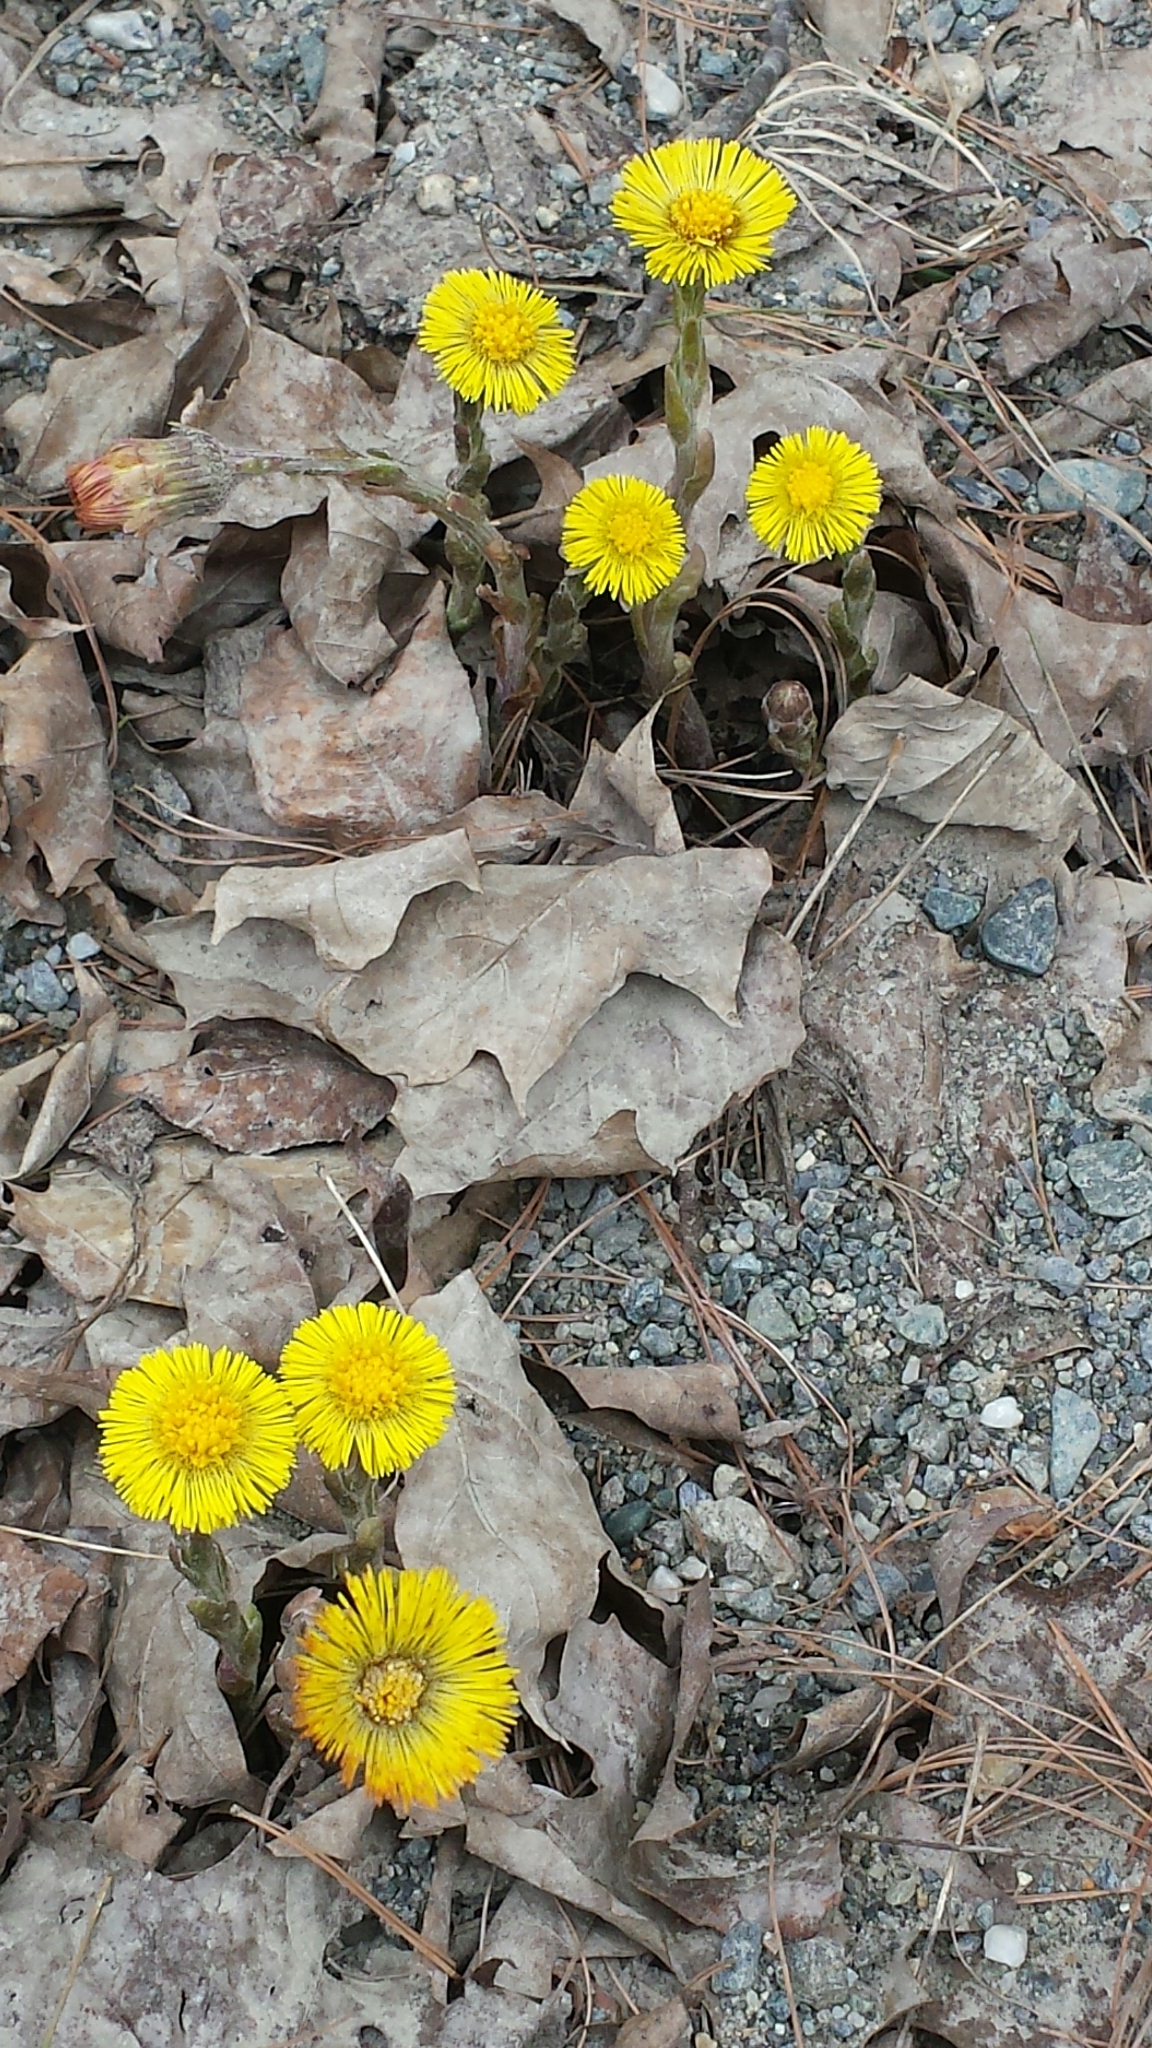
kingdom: Plantae
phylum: Tracheophyta
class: Magnoliopsida
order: Asterales
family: Asteraceae
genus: Tussilago
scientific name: Tussilago farfara
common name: Coltsfoot
